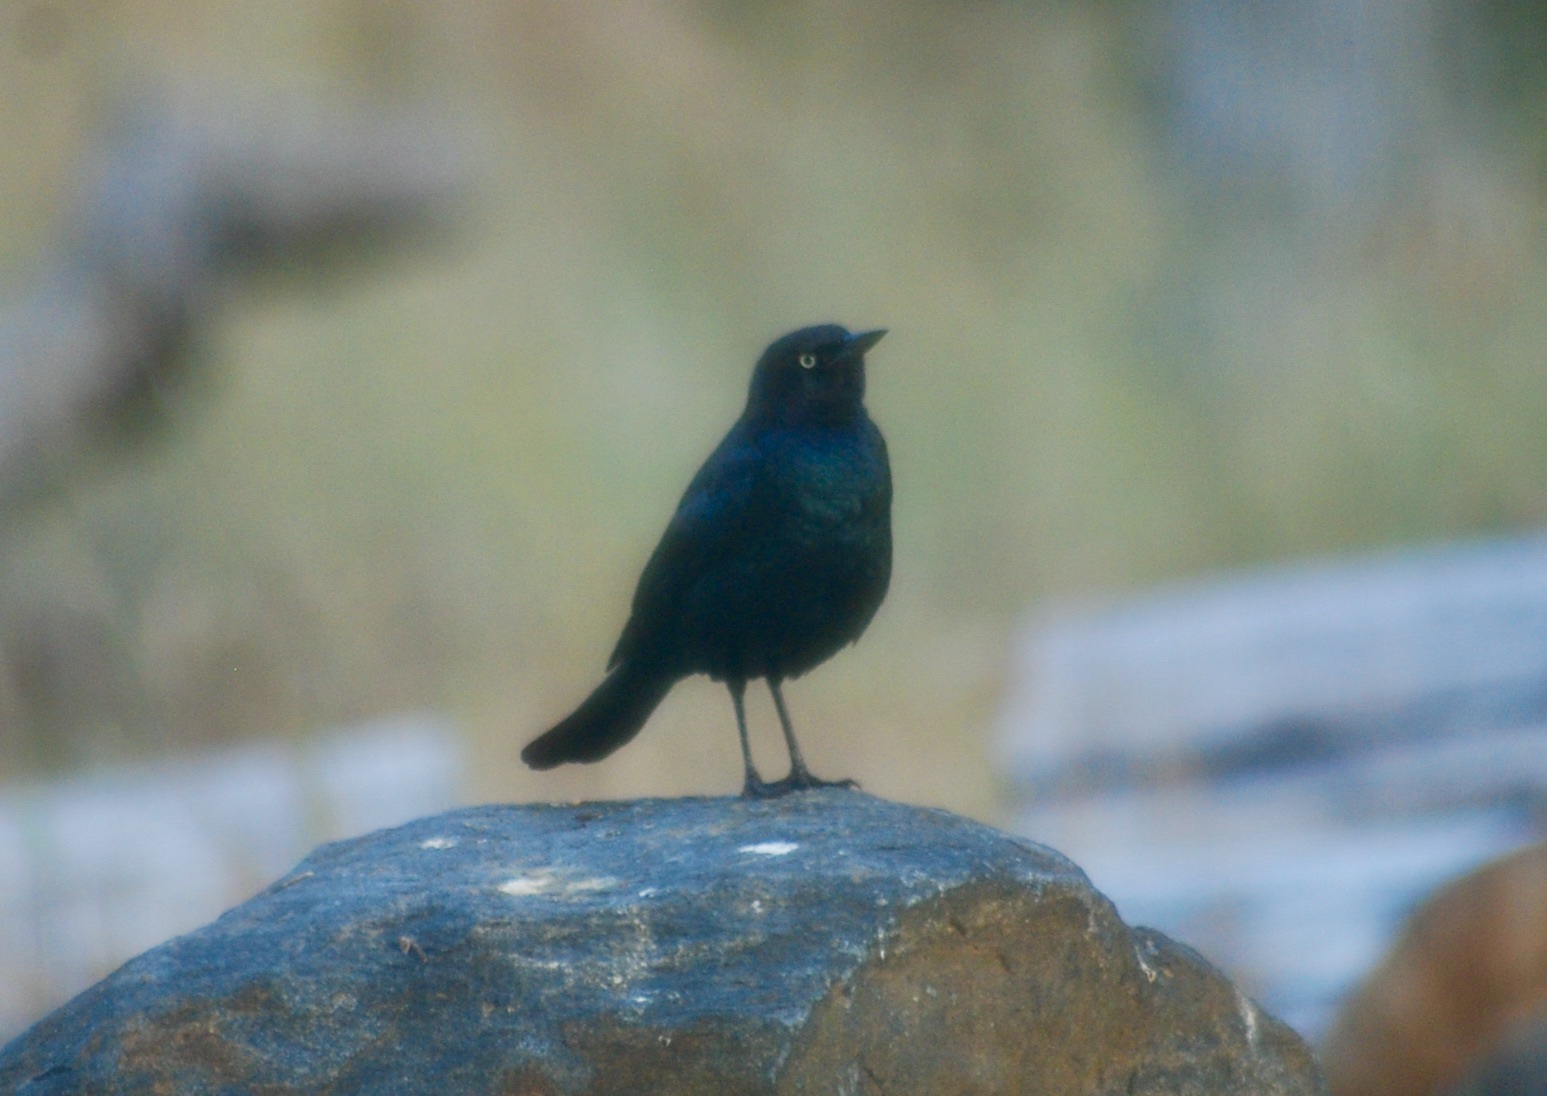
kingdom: Animalia
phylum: Chordata
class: Aves
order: Passeriformes
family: Icteridae
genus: Euphagus
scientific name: Euphagus cyanocephalus
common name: Brewer's blackbird
